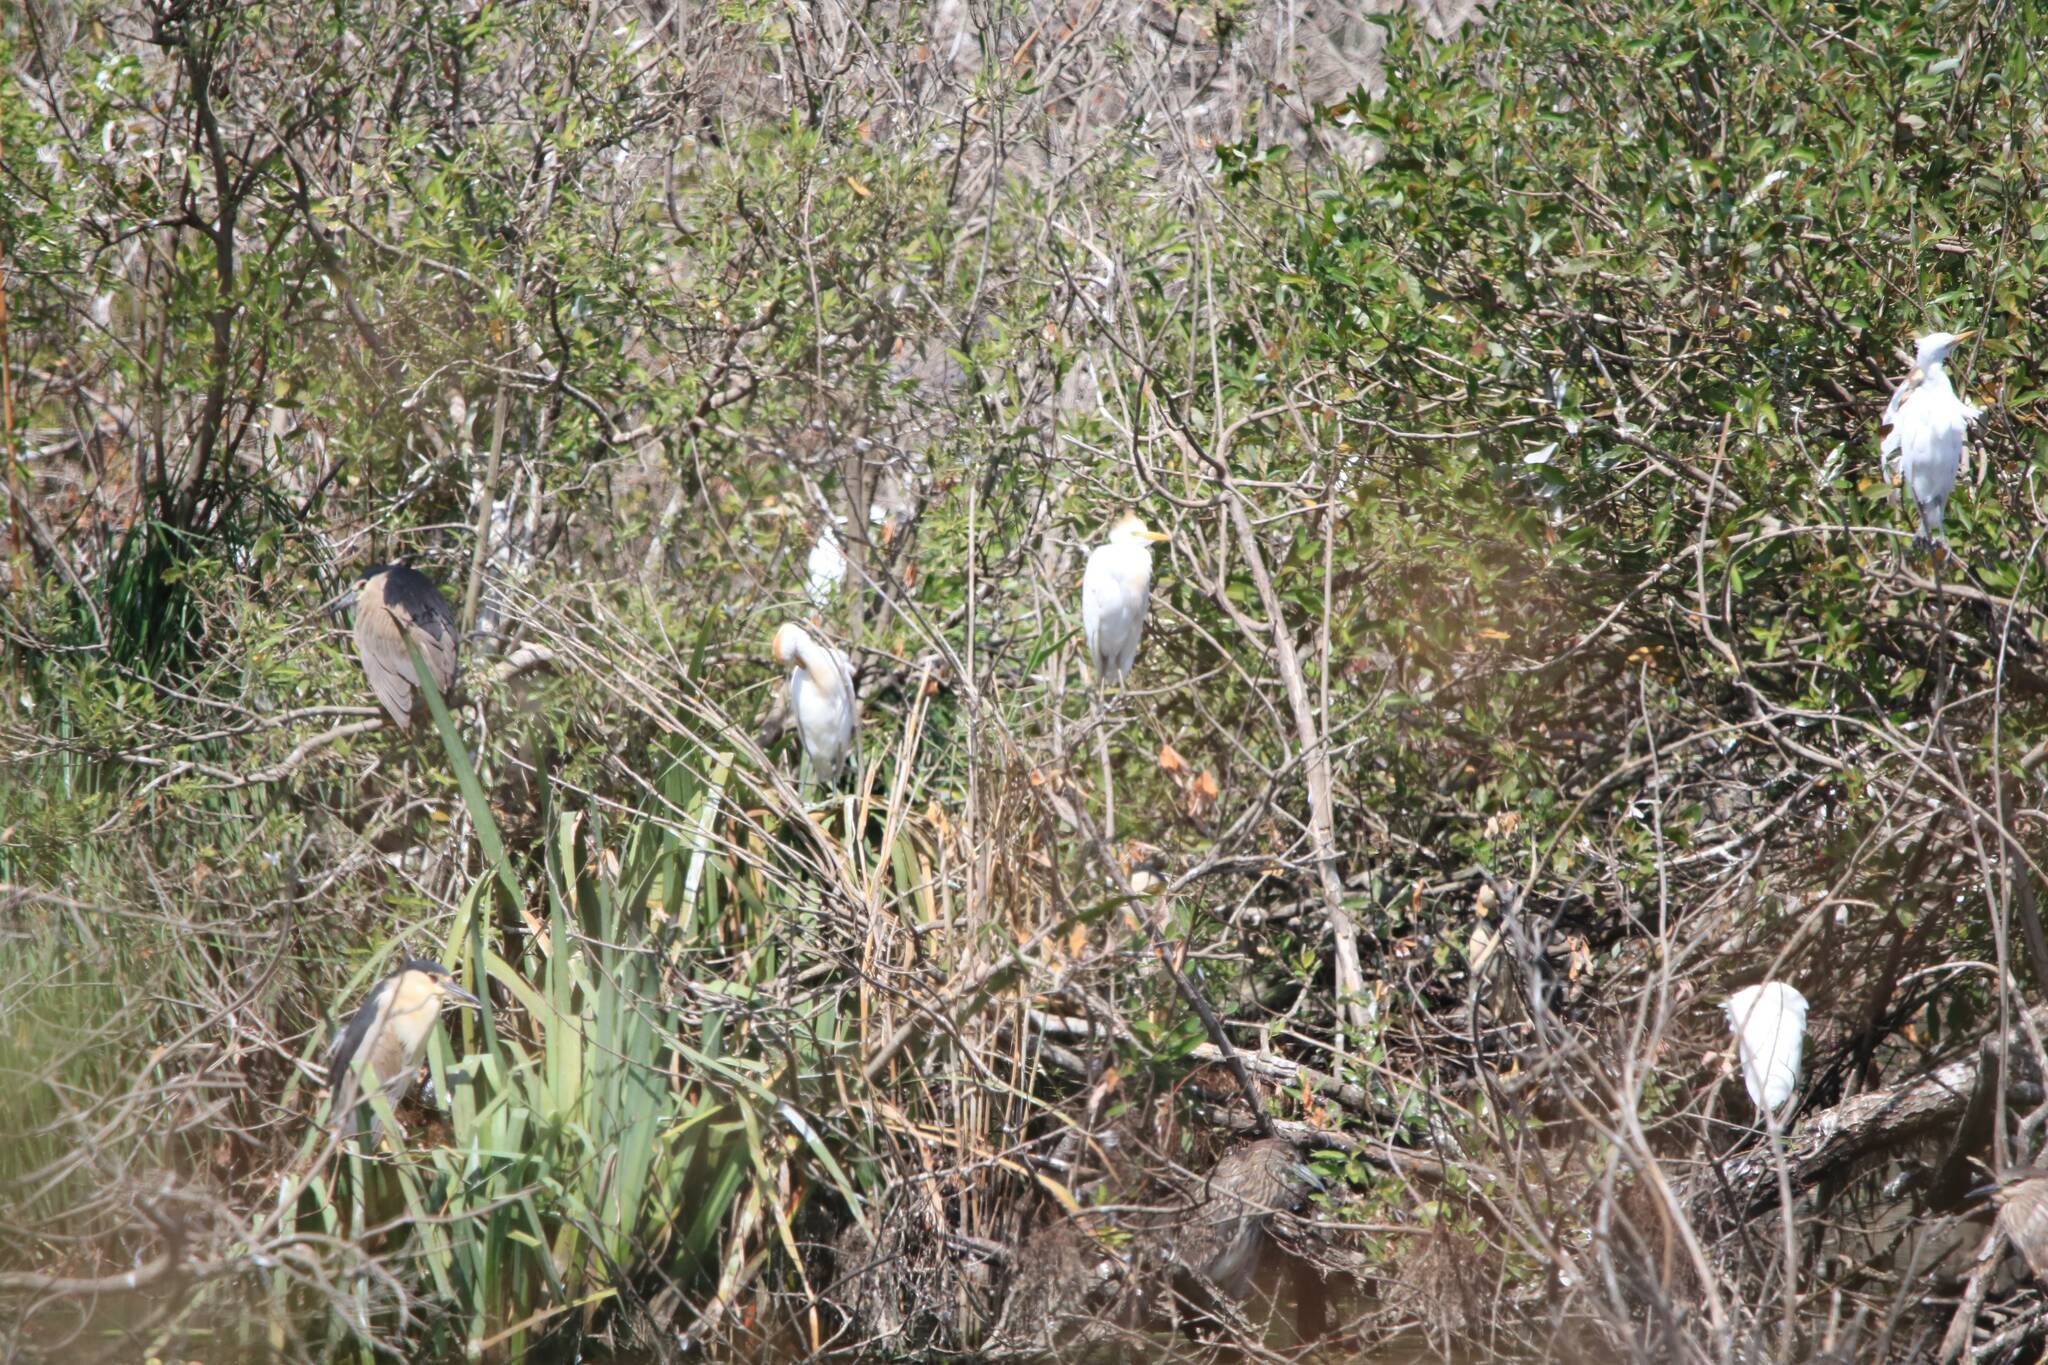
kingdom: Animalia
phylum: Chordata
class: Aves
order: Pelecaniformes
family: Ardeidae
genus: Bubulcus
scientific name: Bubulcus ibis
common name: Cattle egret
